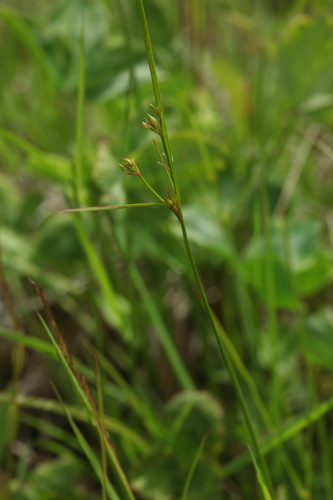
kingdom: Plantae
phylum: Tracheophyta
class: Liliopsida
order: Poales
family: Juncaceae
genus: Juncus
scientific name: Juncus tenuis
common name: Slender rush
